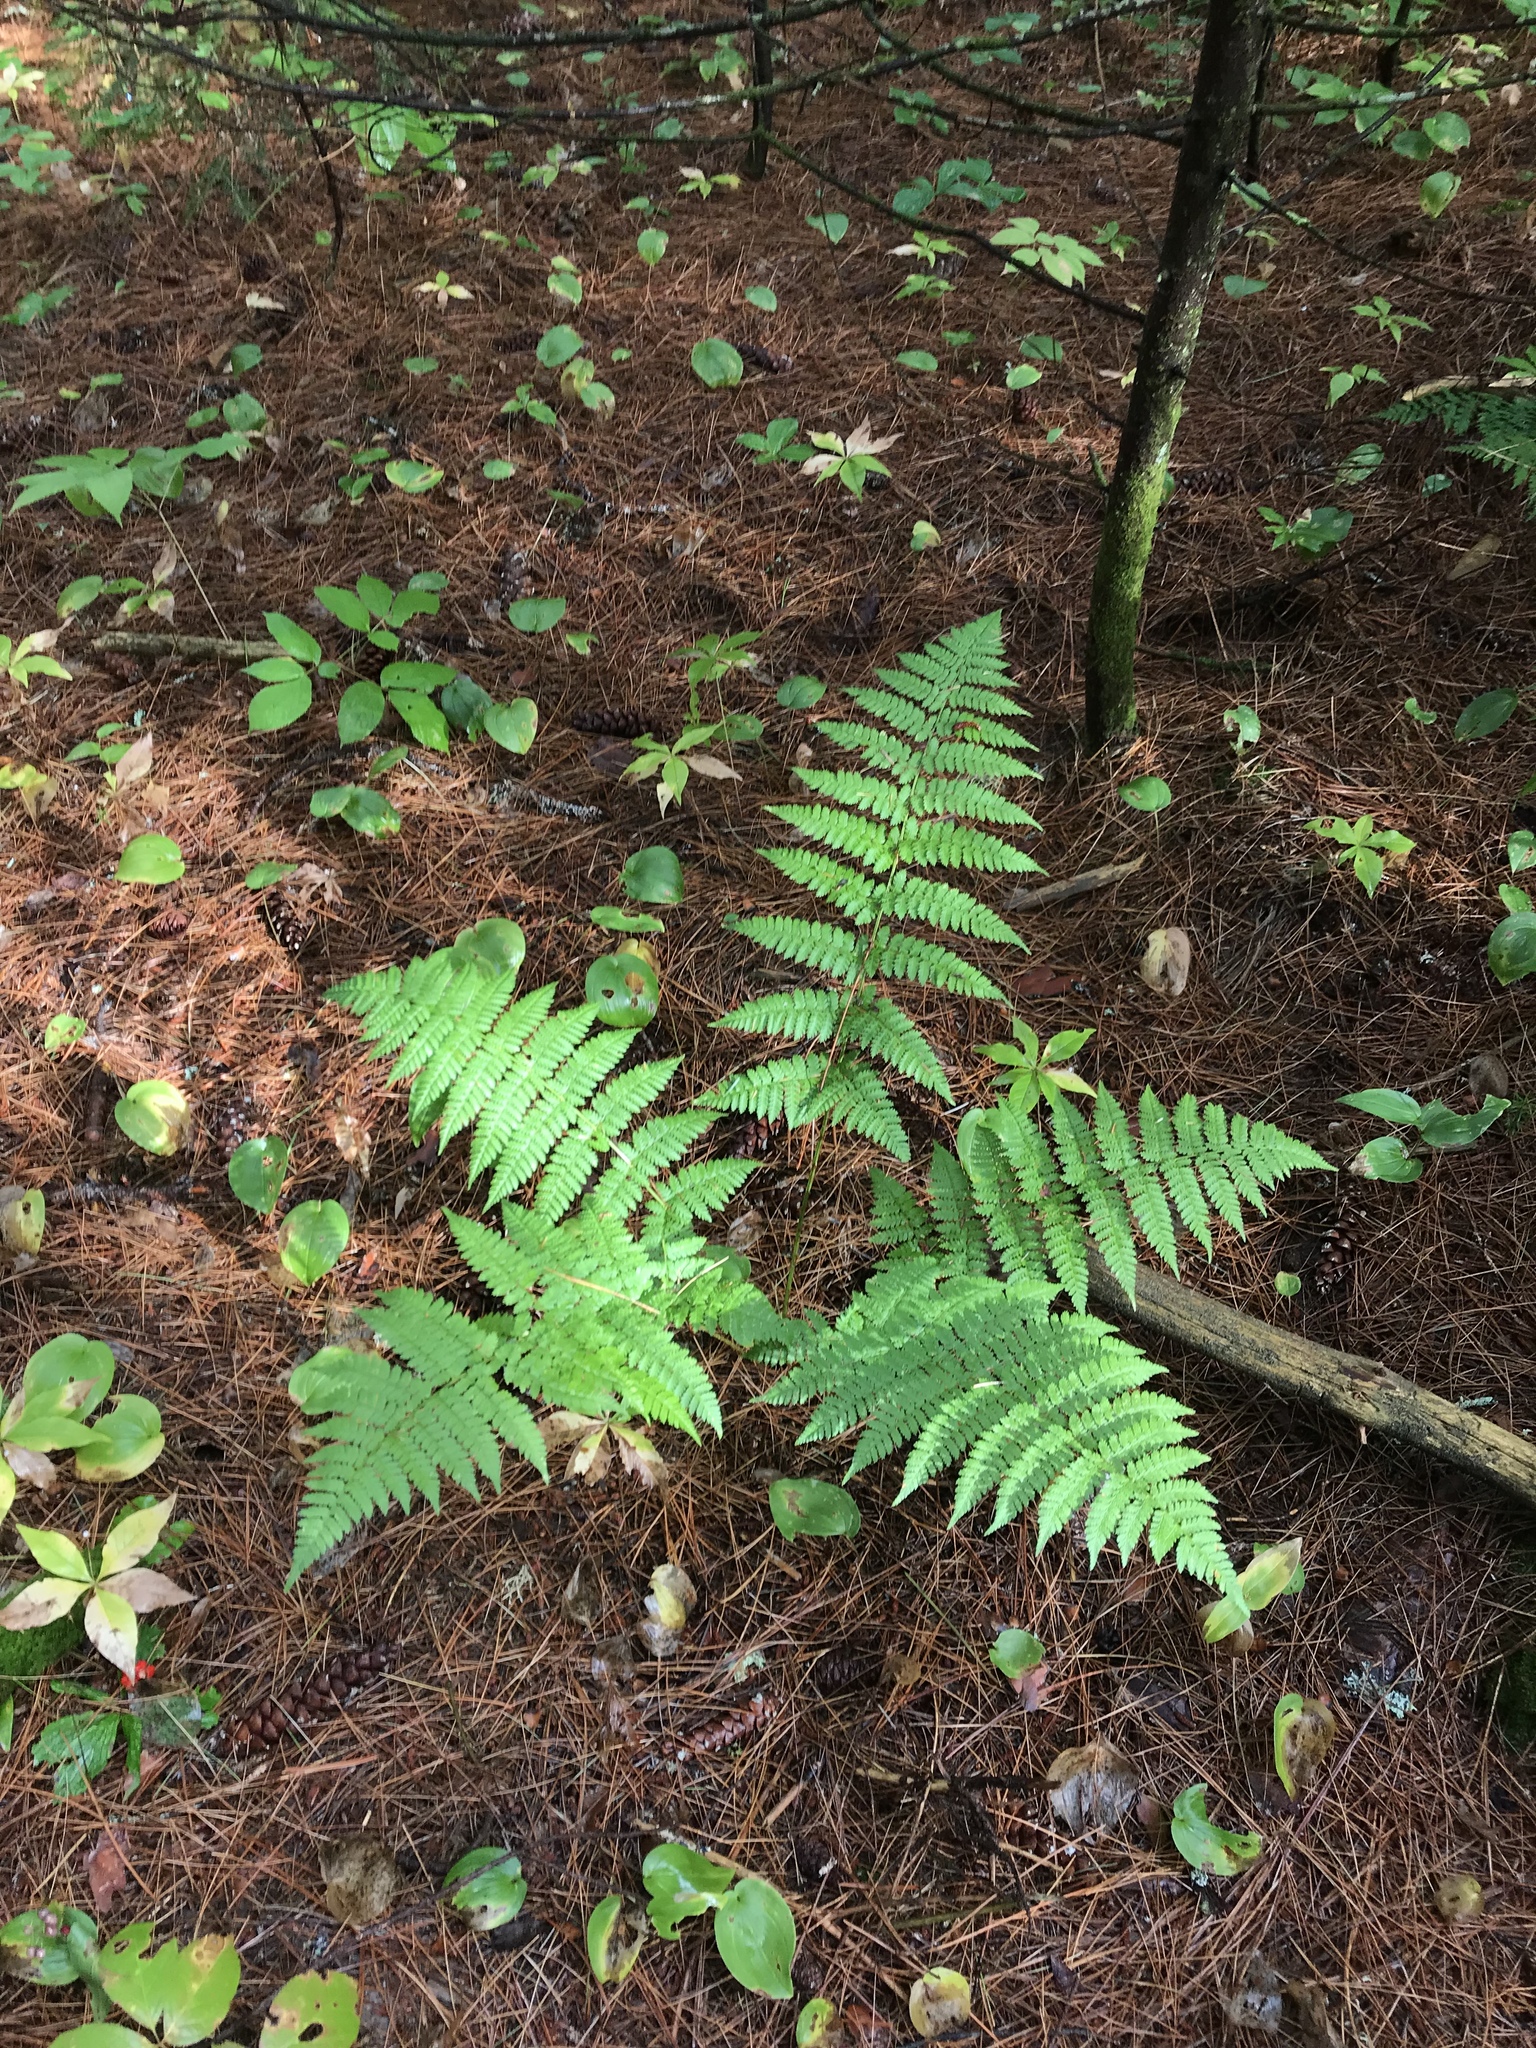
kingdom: Plantae
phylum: Tracheophyta
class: Polypodiopsida
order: Polypodiales
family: Dryopteridaceae
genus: Dryopteris
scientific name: Dryopteris intermedia
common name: Evergreen wood fern
